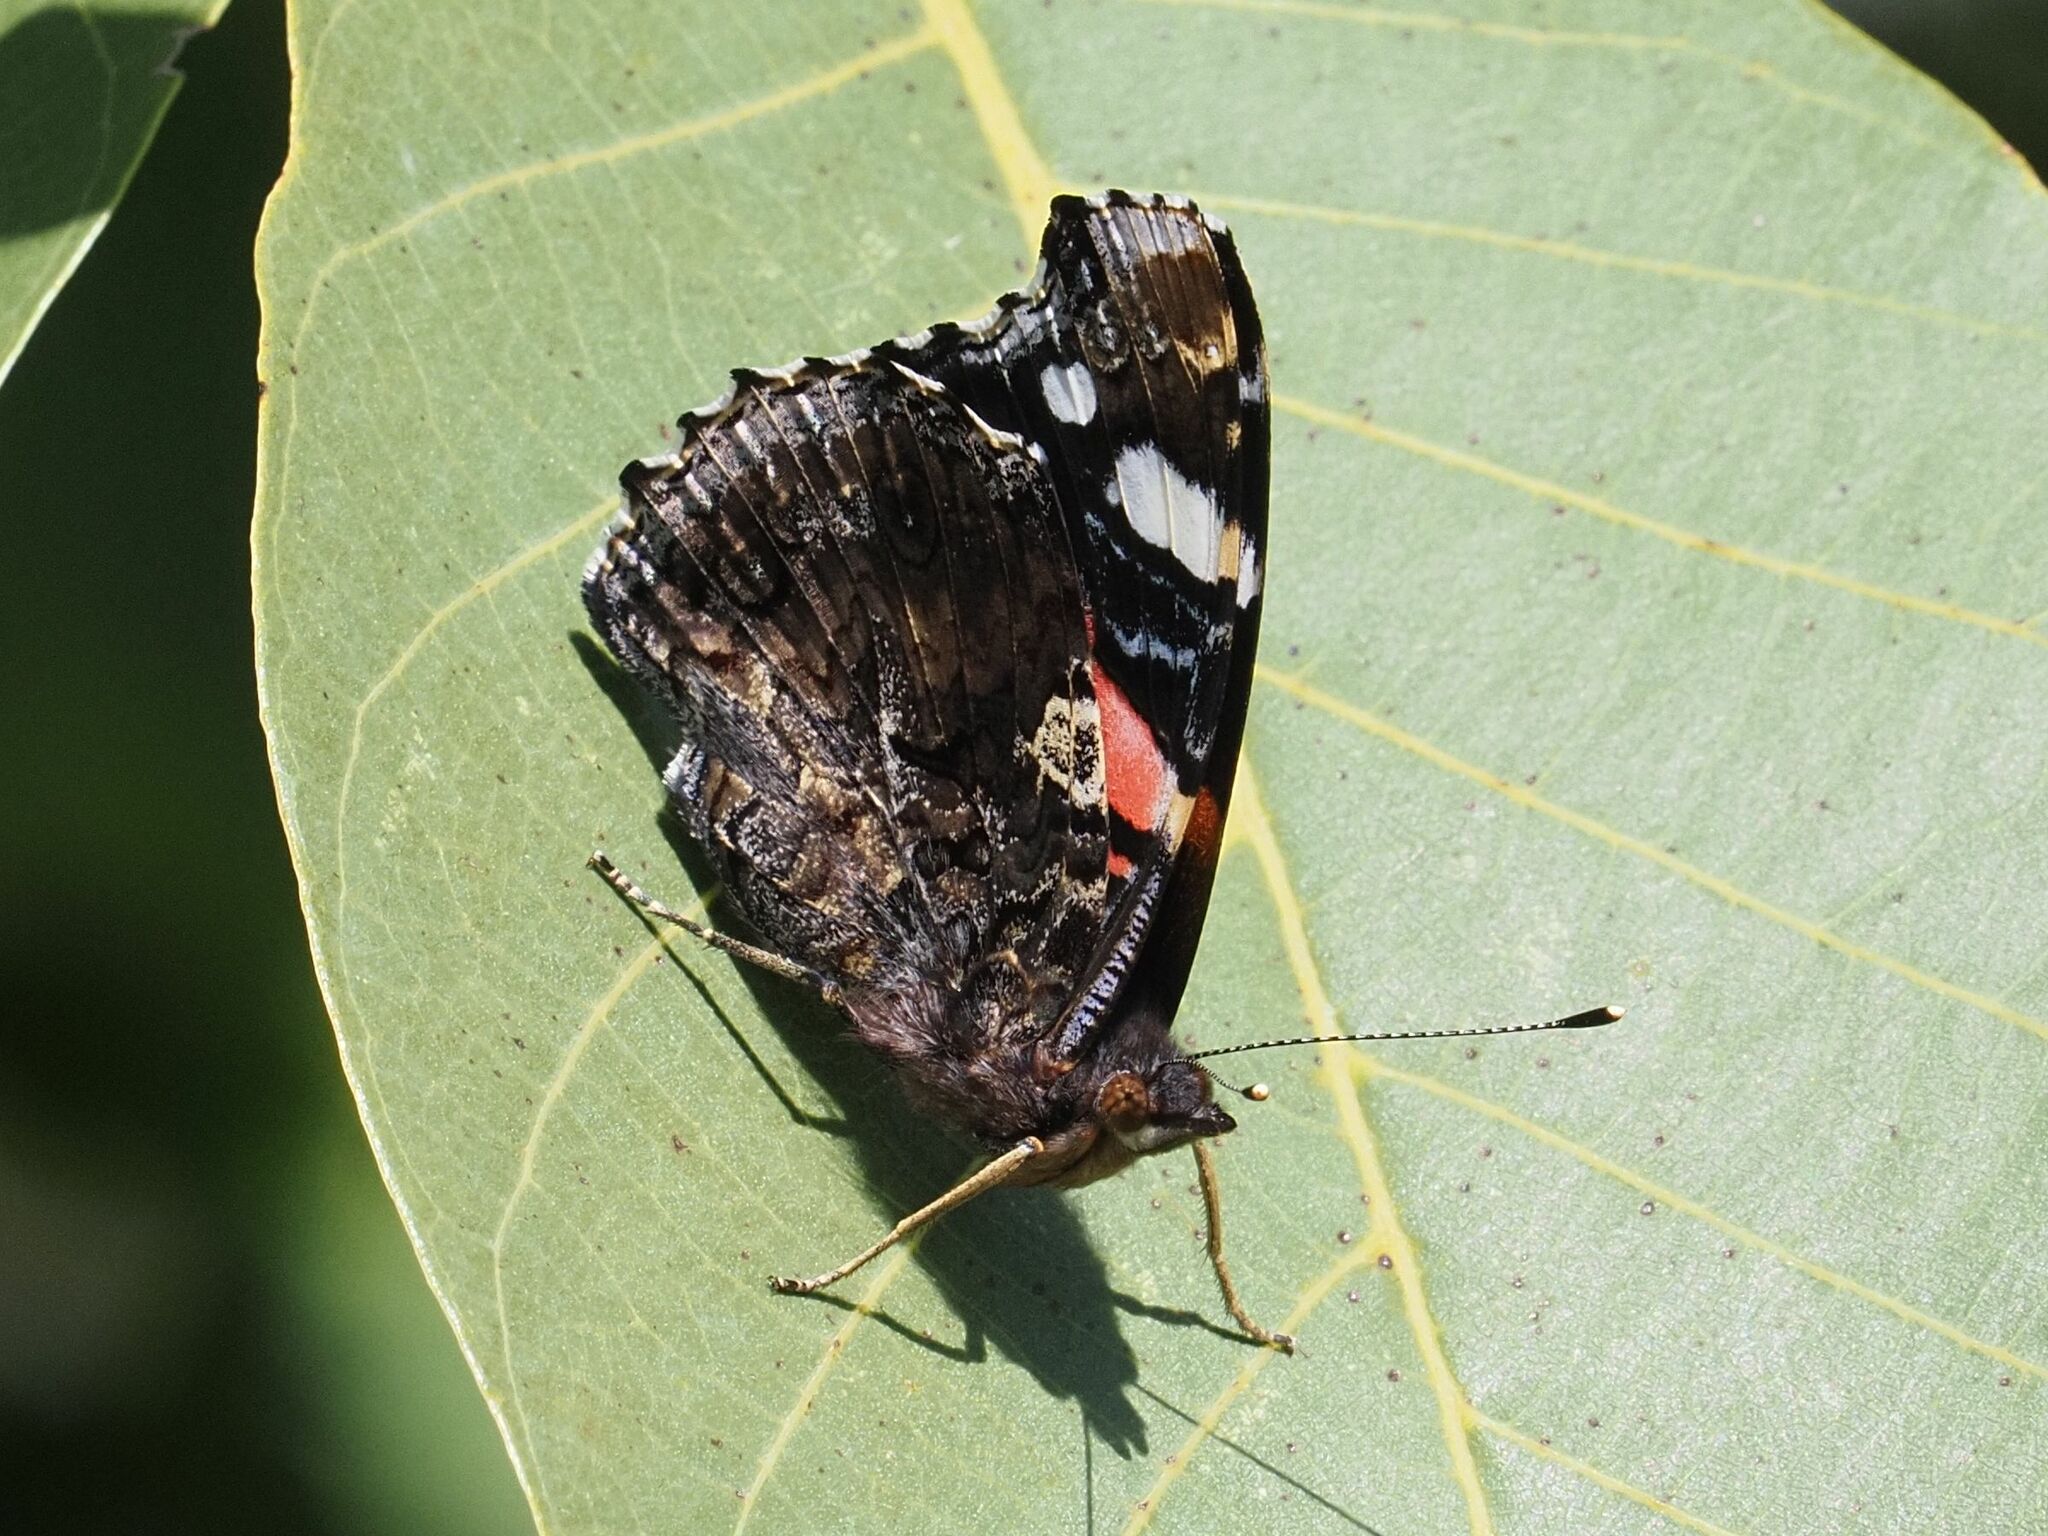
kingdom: Animalia
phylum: Arthropoda
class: Insecta
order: Lepidoptera
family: Nymphalidae
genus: Vanessa
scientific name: Vanessa atalanta
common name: Red admiral
